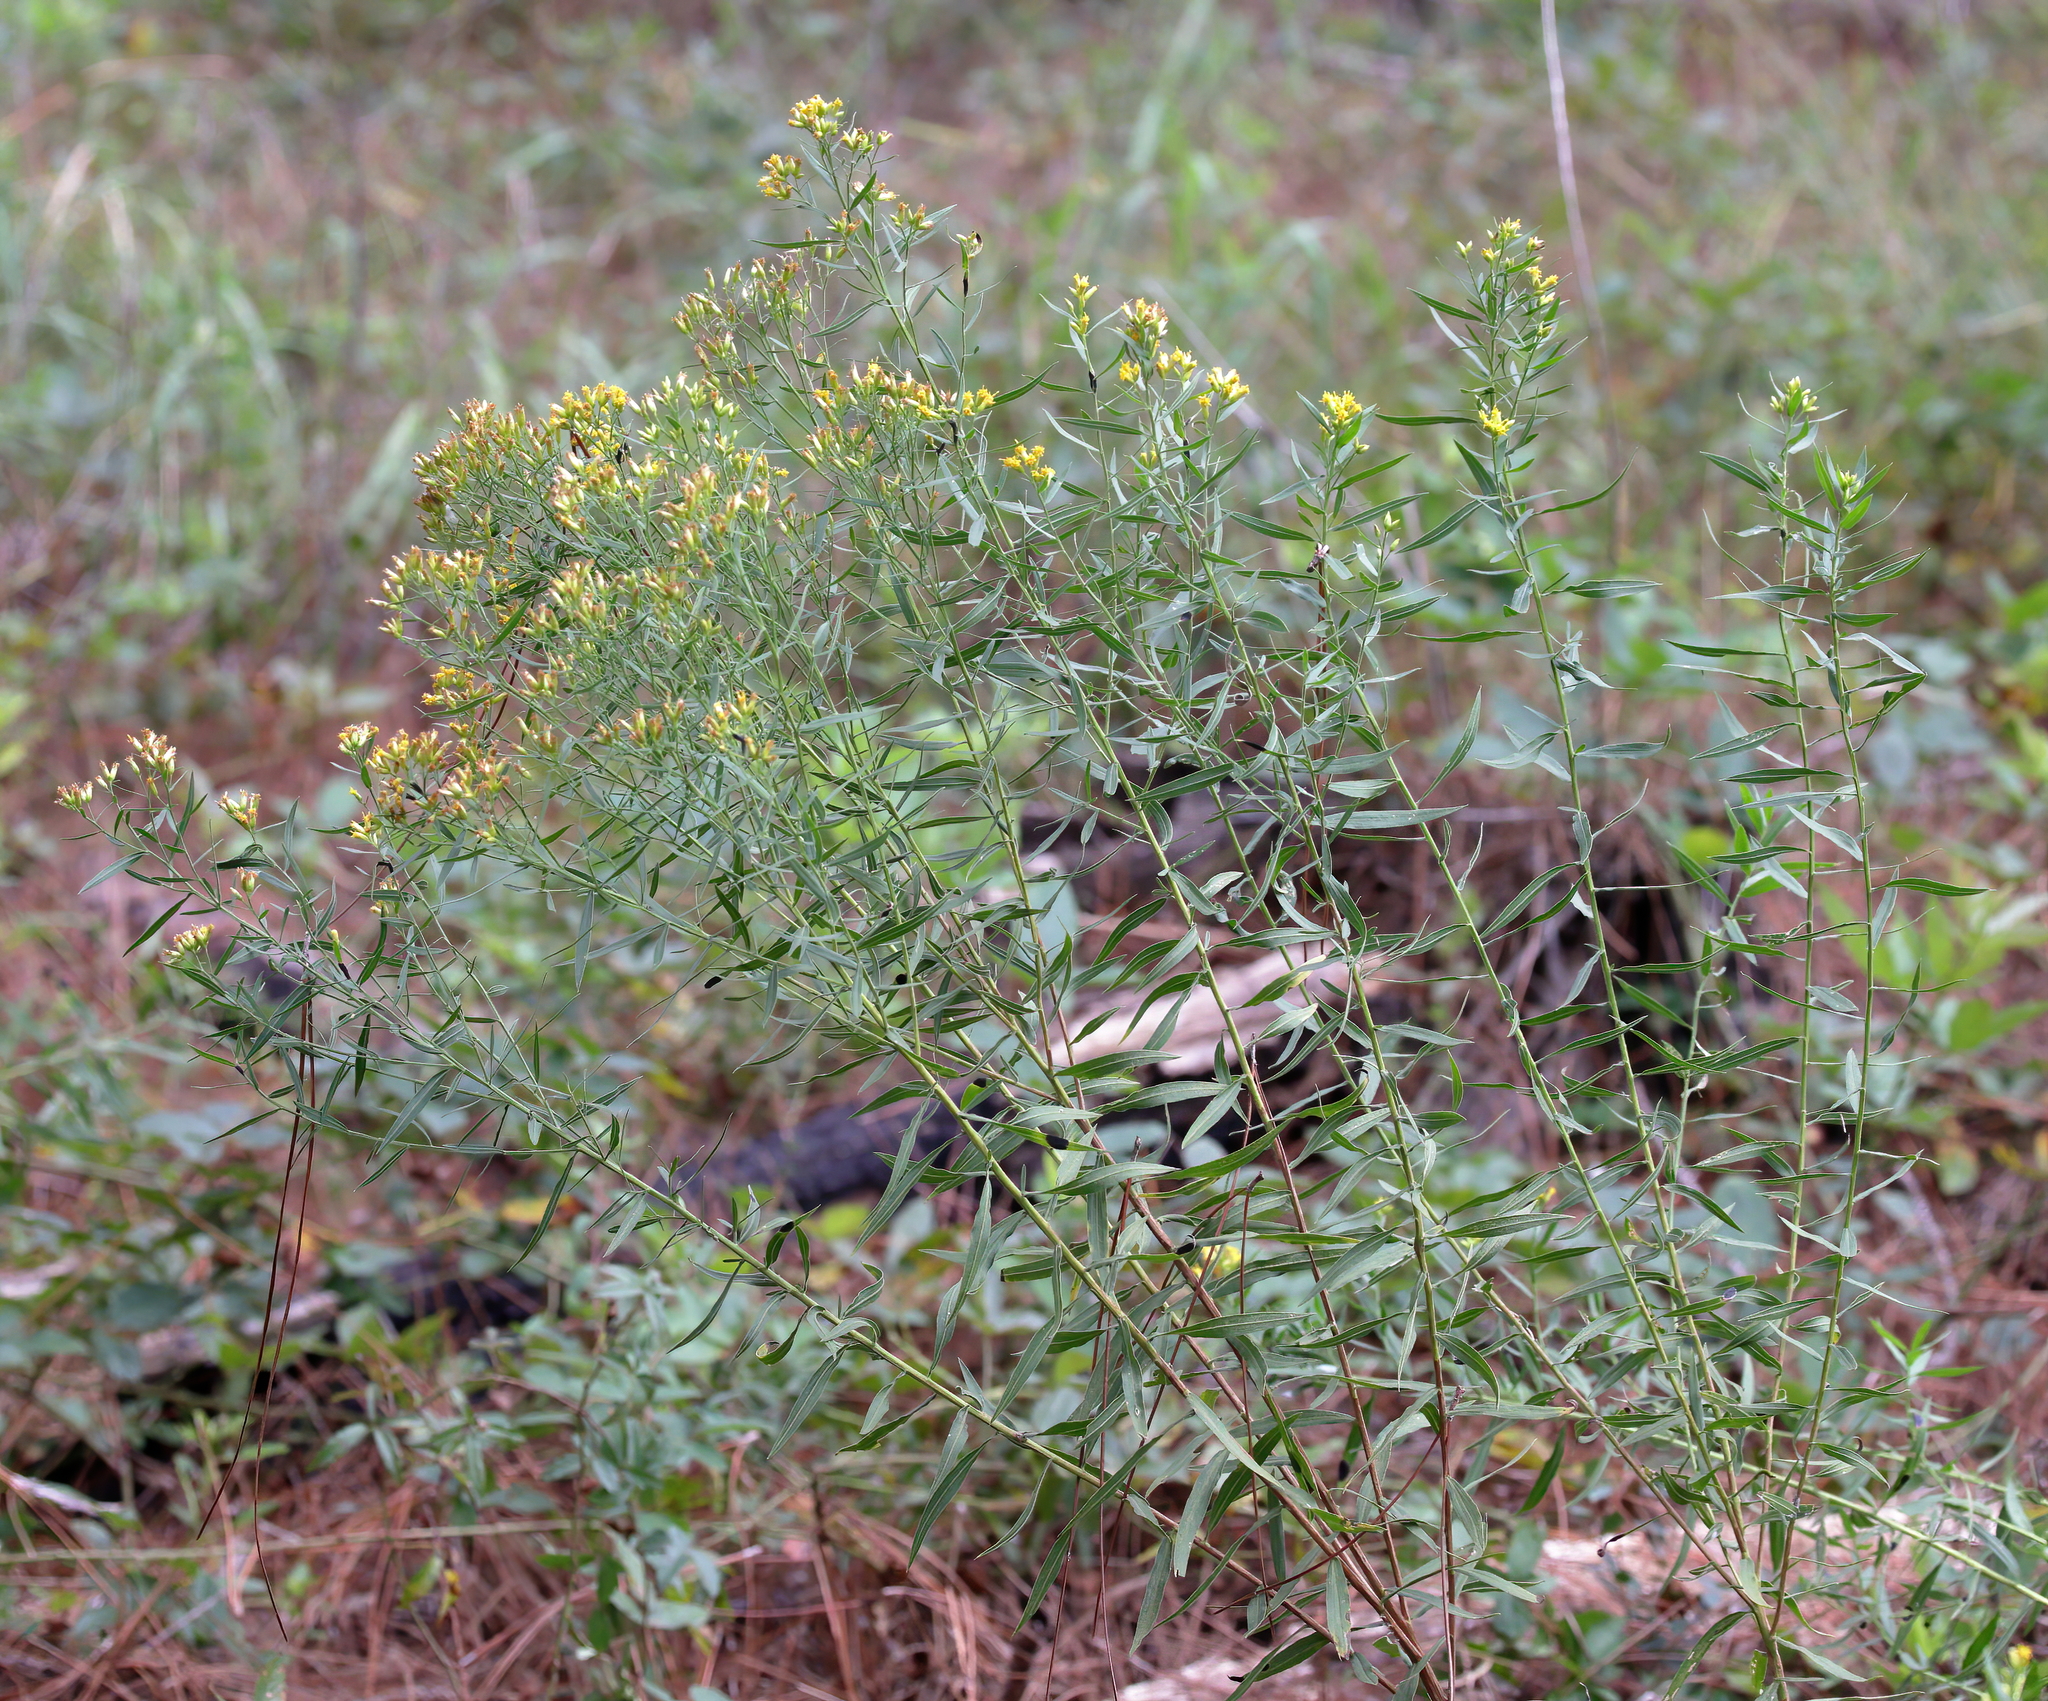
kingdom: Plantae
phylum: Tracheophyta
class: Magnoliopsida
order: Asterales
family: Asteraceae
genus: Euthamia
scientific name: Euthamia scabra
